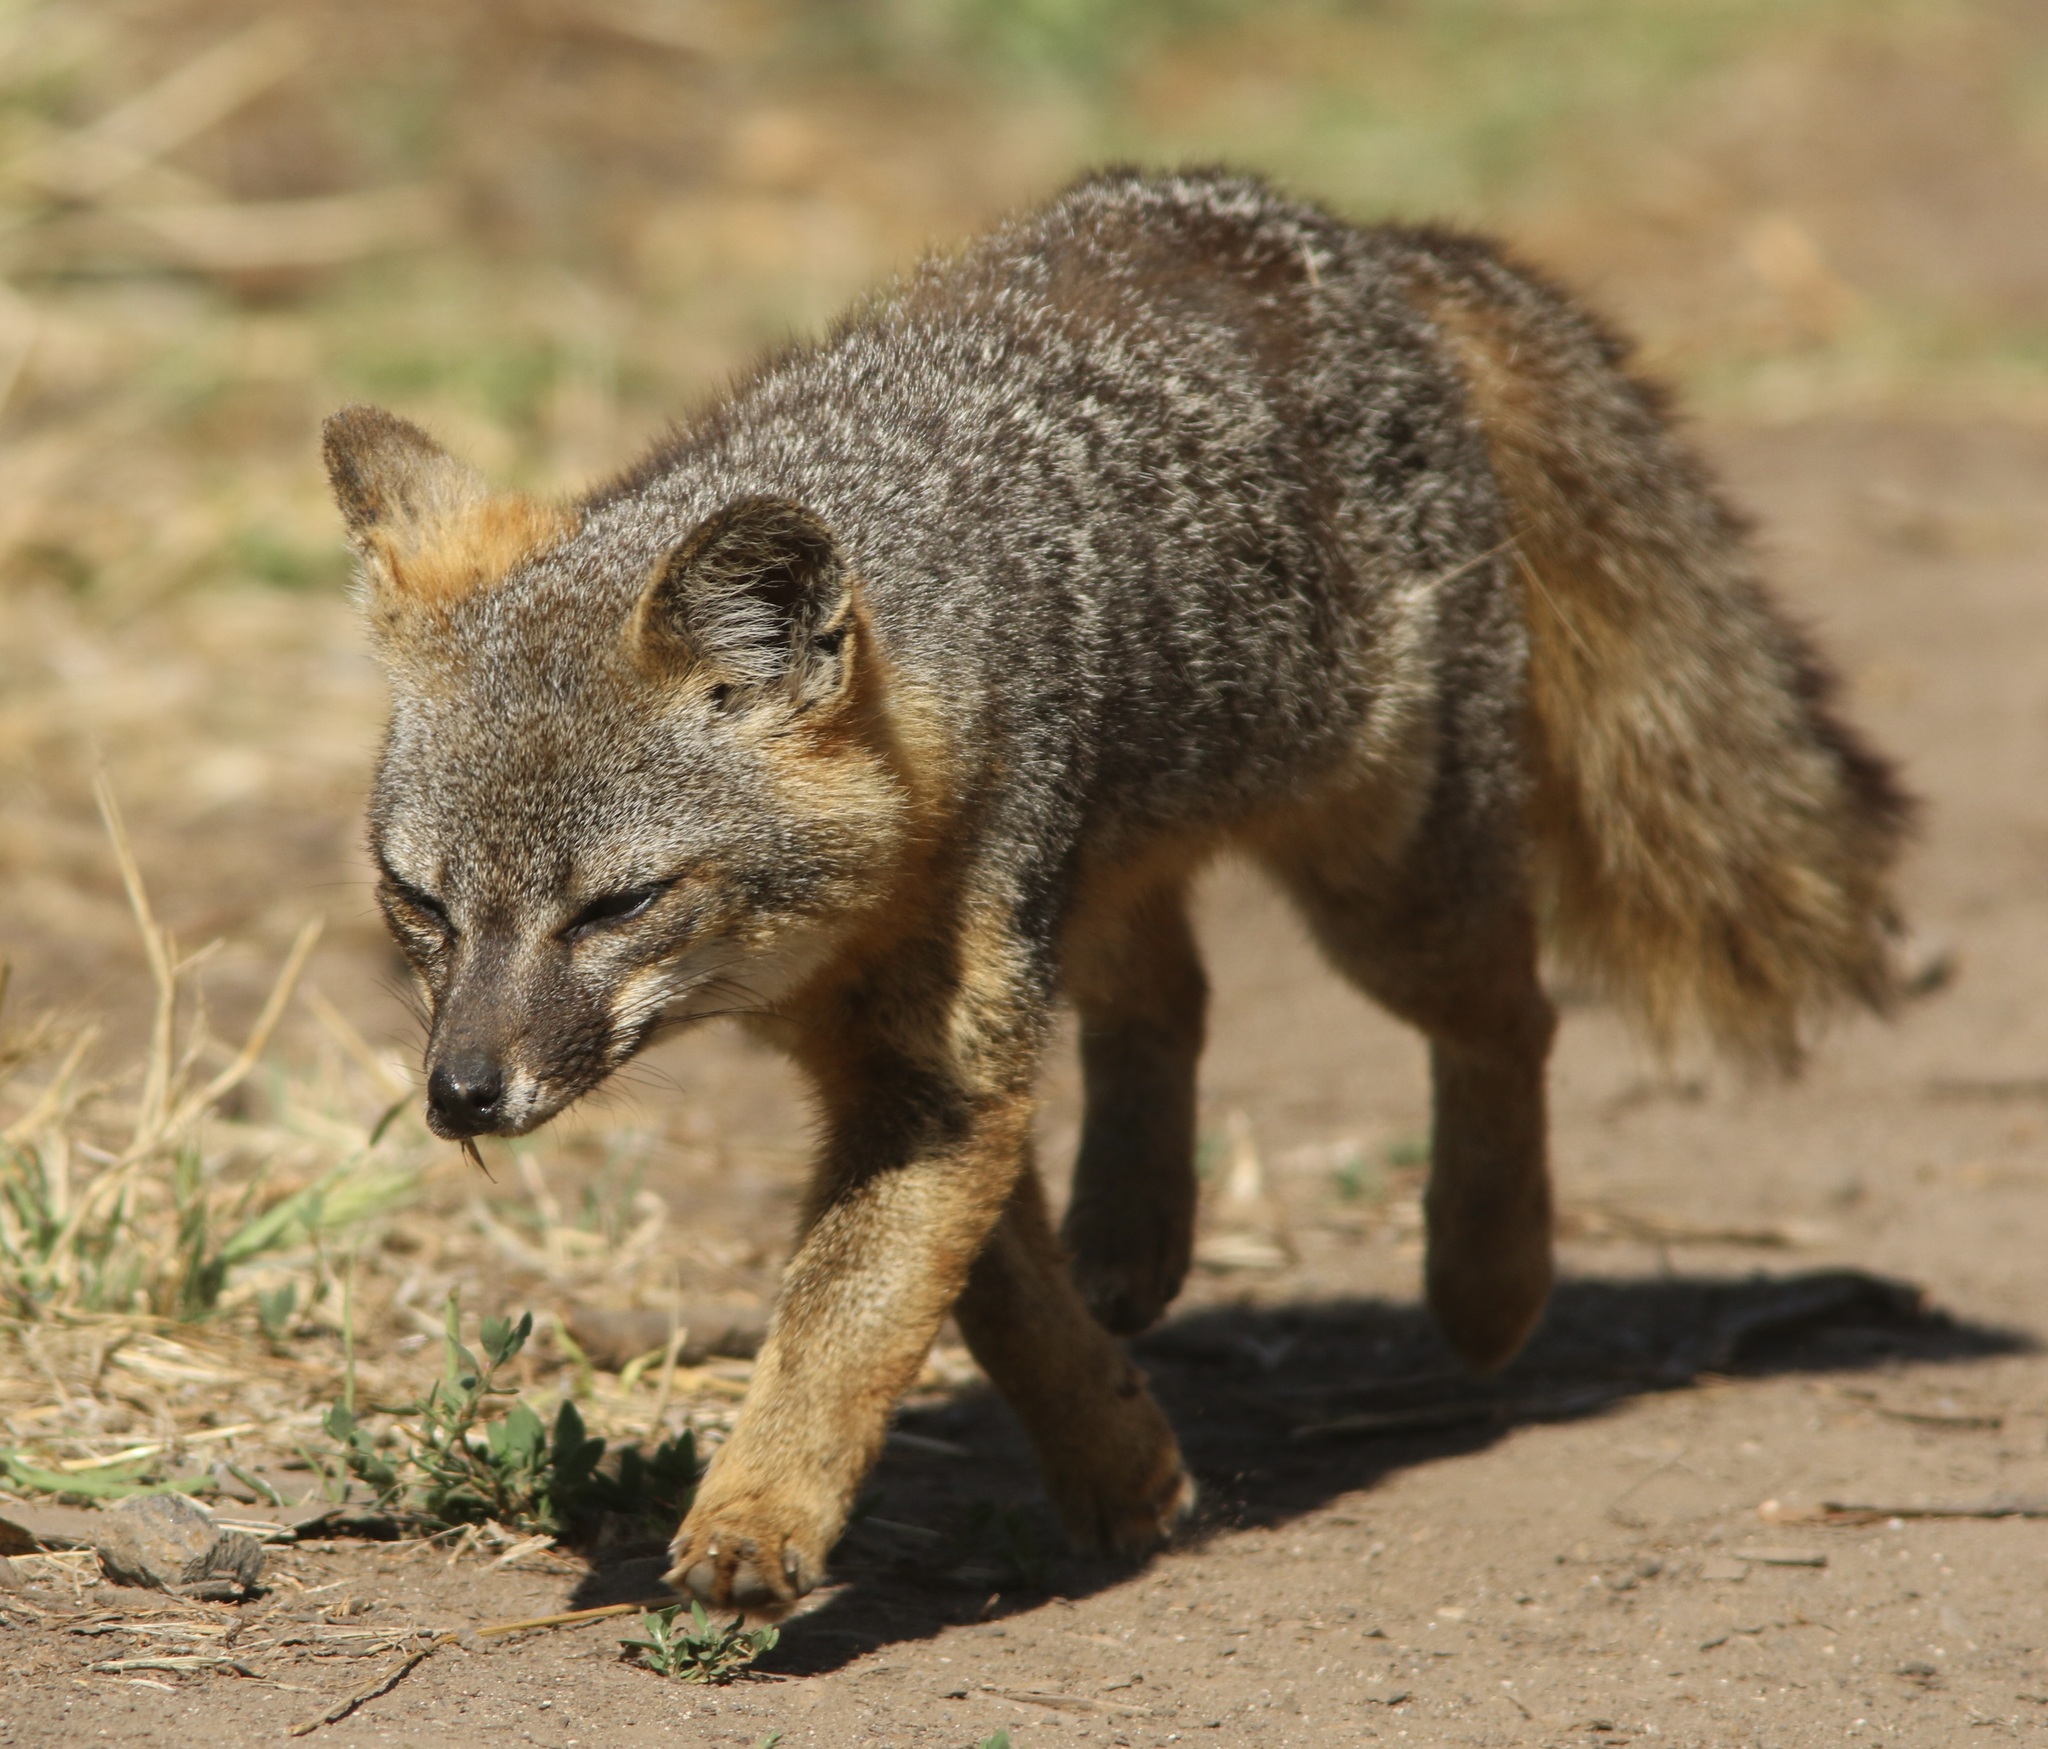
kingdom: Animalia
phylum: Chordata
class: Mammalia
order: Carnivora
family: Canidae
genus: Urocyon
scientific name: Urocyon littoralis
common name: Island gray fox
